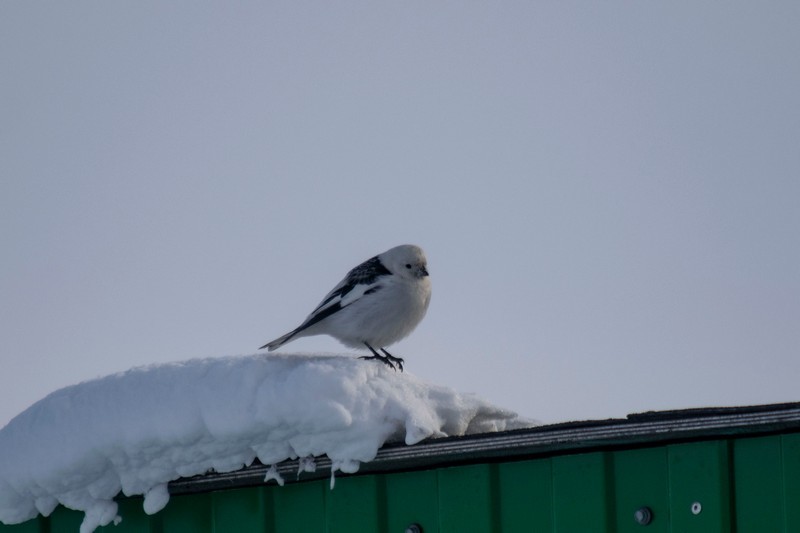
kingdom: Animalia
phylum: Chordata
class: Aves
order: Passeriformes
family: Calcariidae
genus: Plectrophenax
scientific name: Plectrophenax nivalis
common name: Snow bunting
